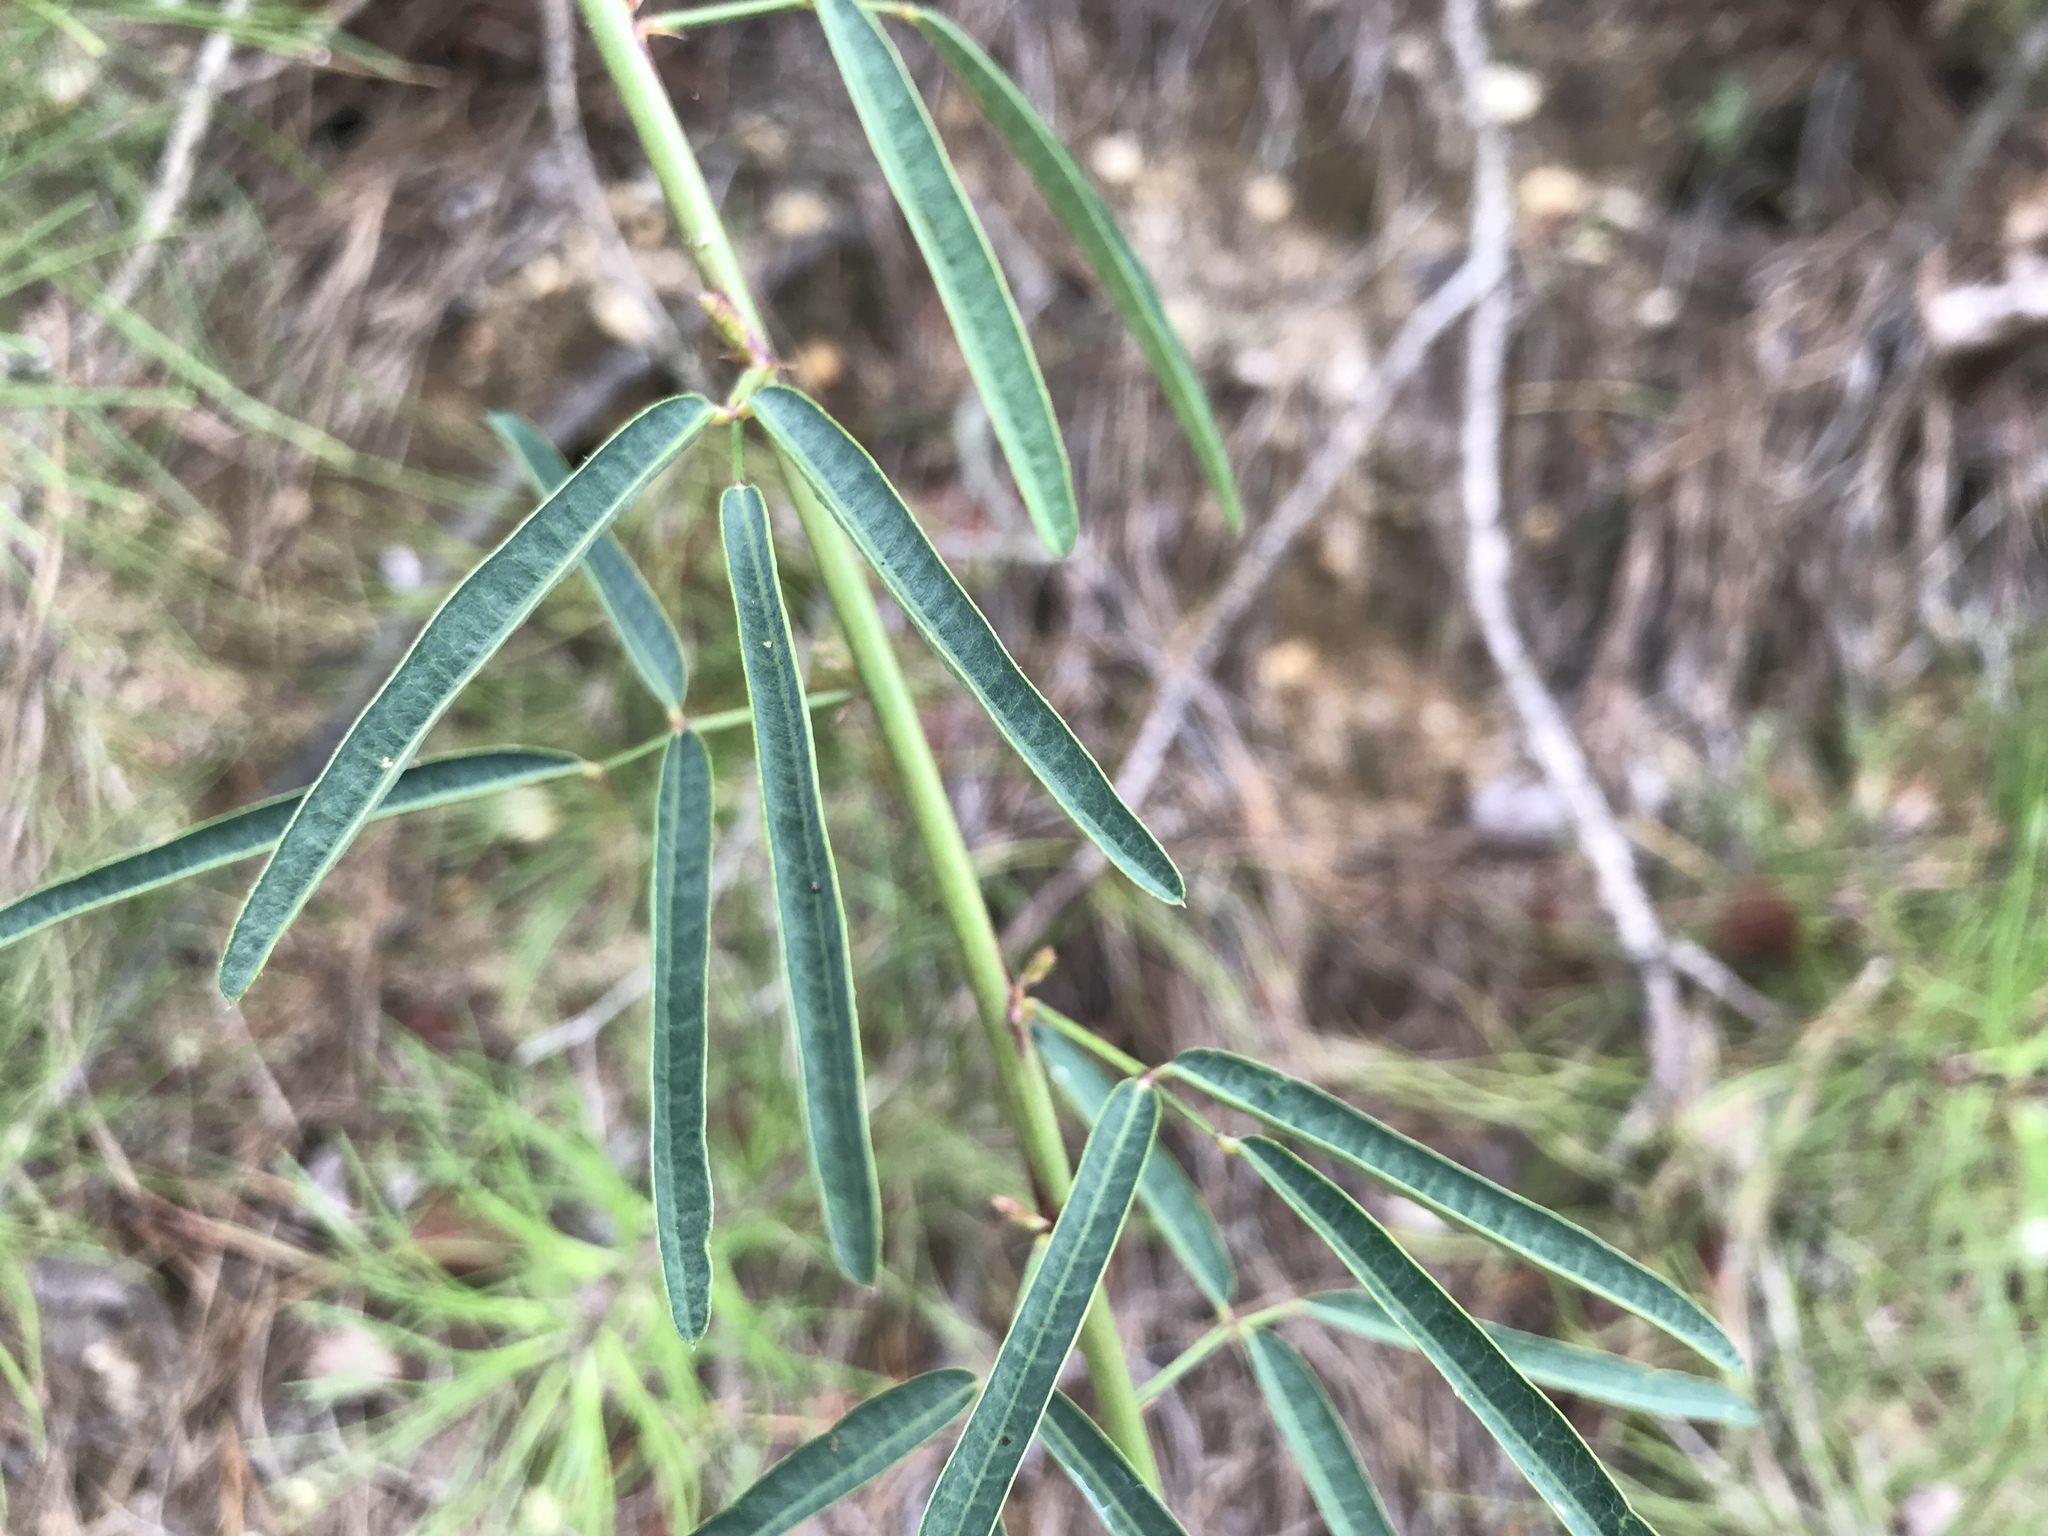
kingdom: Plantae
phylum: Tracheophyta
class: Magnoliopsida
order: Fabales
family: Fabaceae
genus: Desmodium
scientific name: Desmodium strictum
